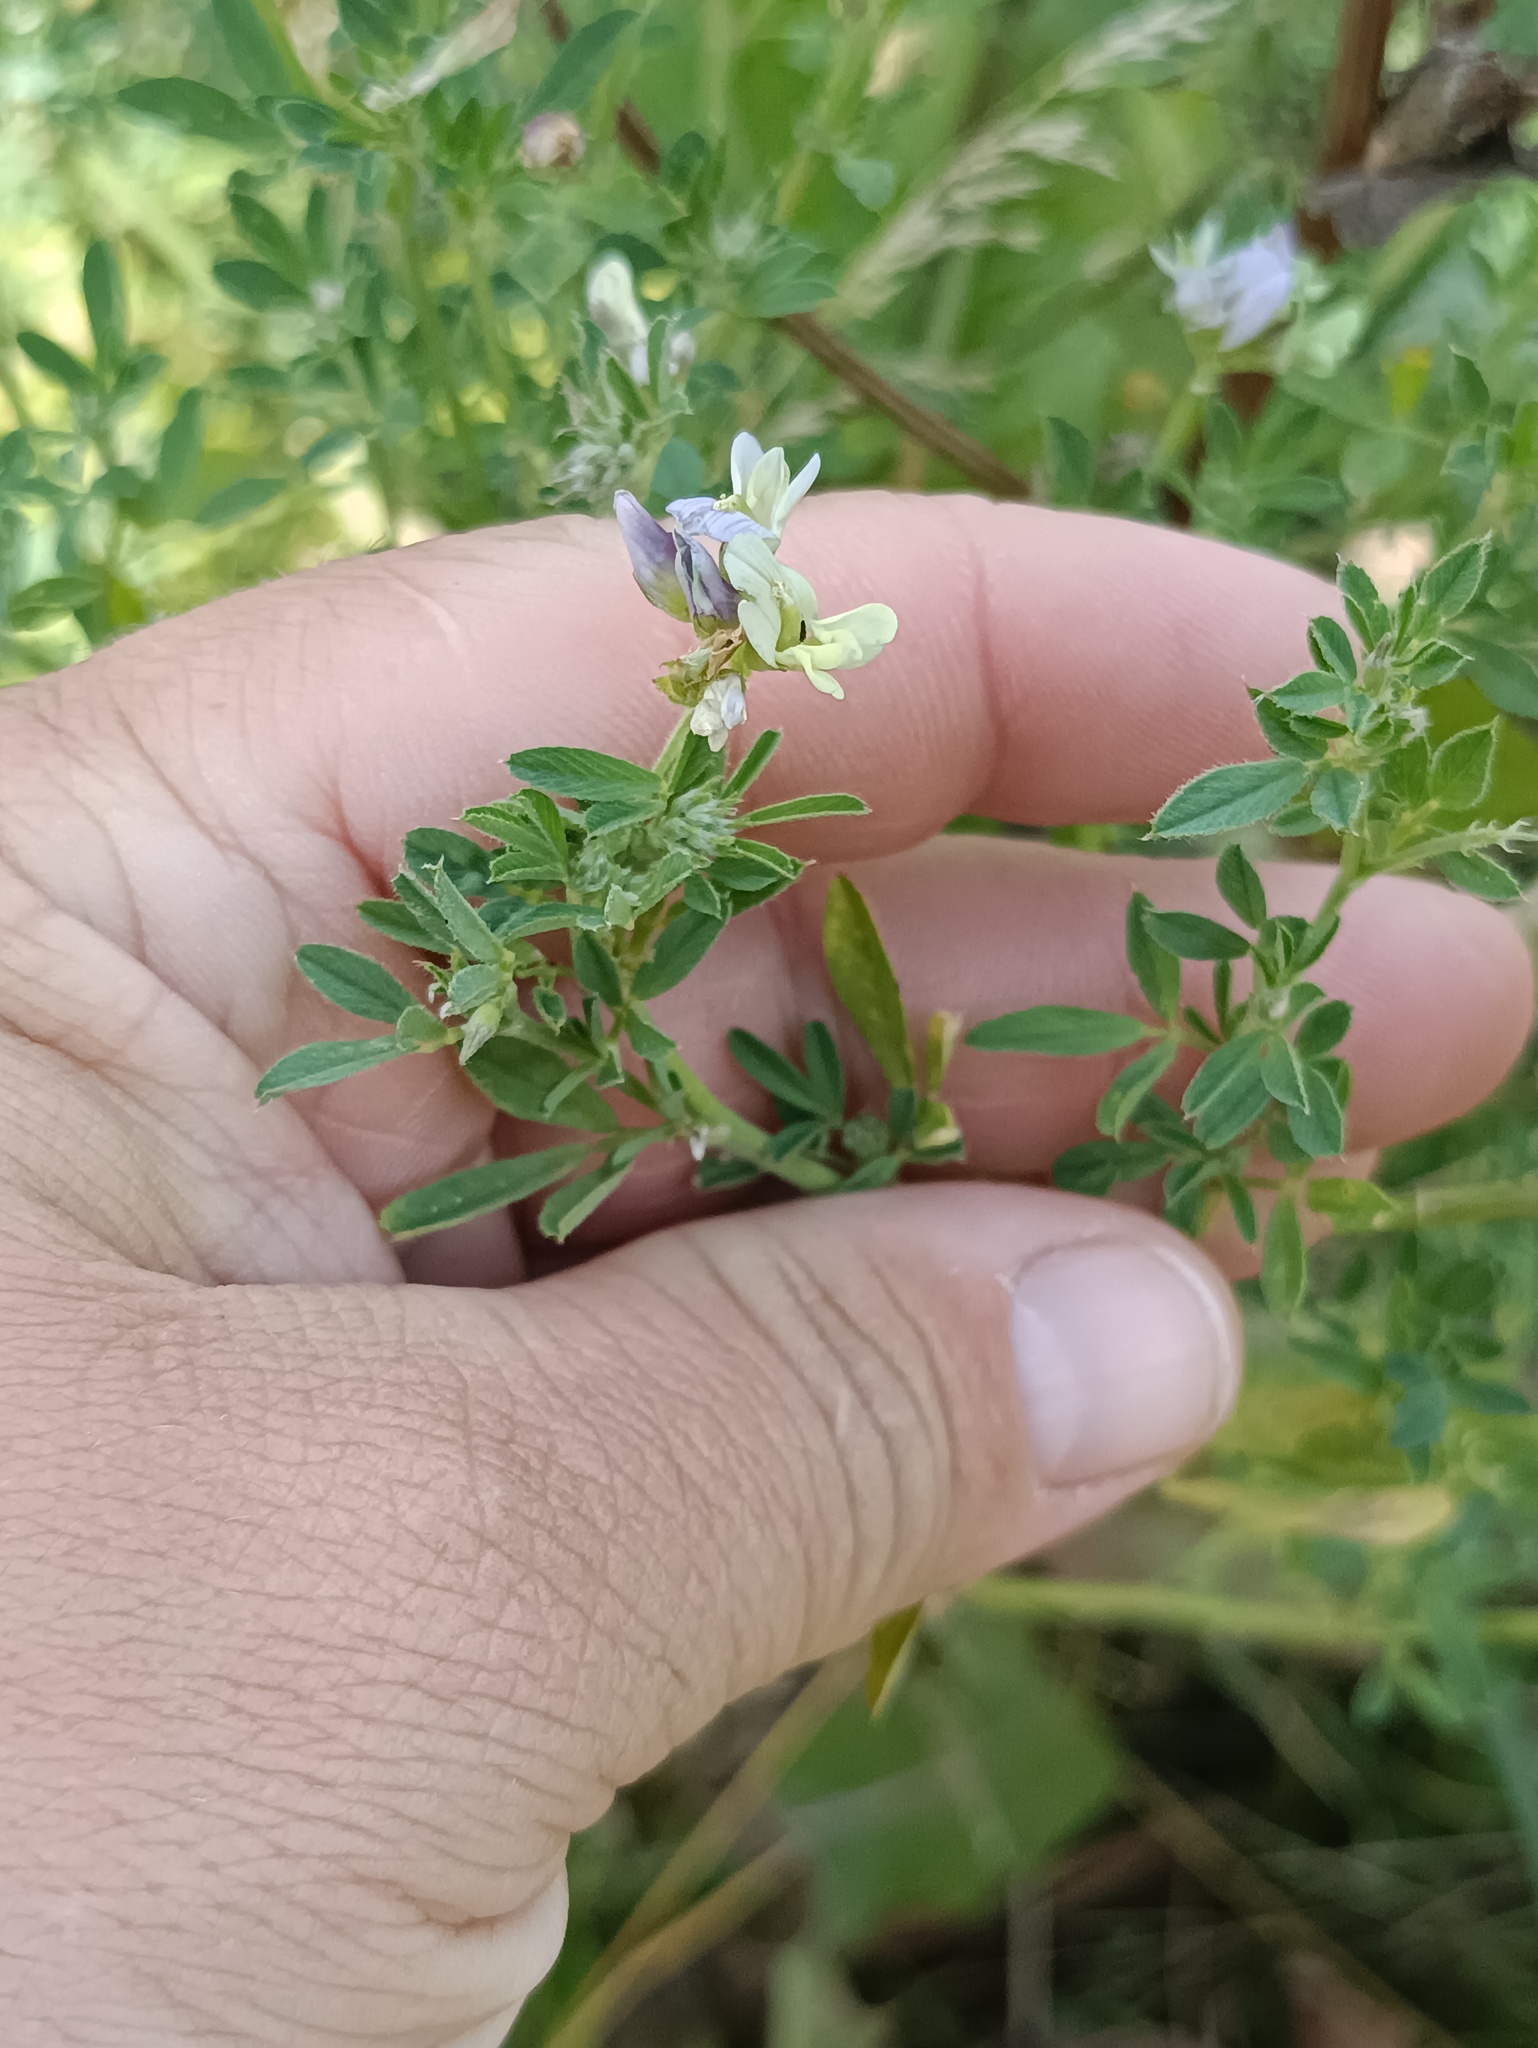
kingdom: Plantae
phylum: Tracheophyta
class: Magnoliopsida
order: Fabales
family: Fabaceae
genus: Medicago
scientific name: Medicago varia
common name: Sand lucerne
